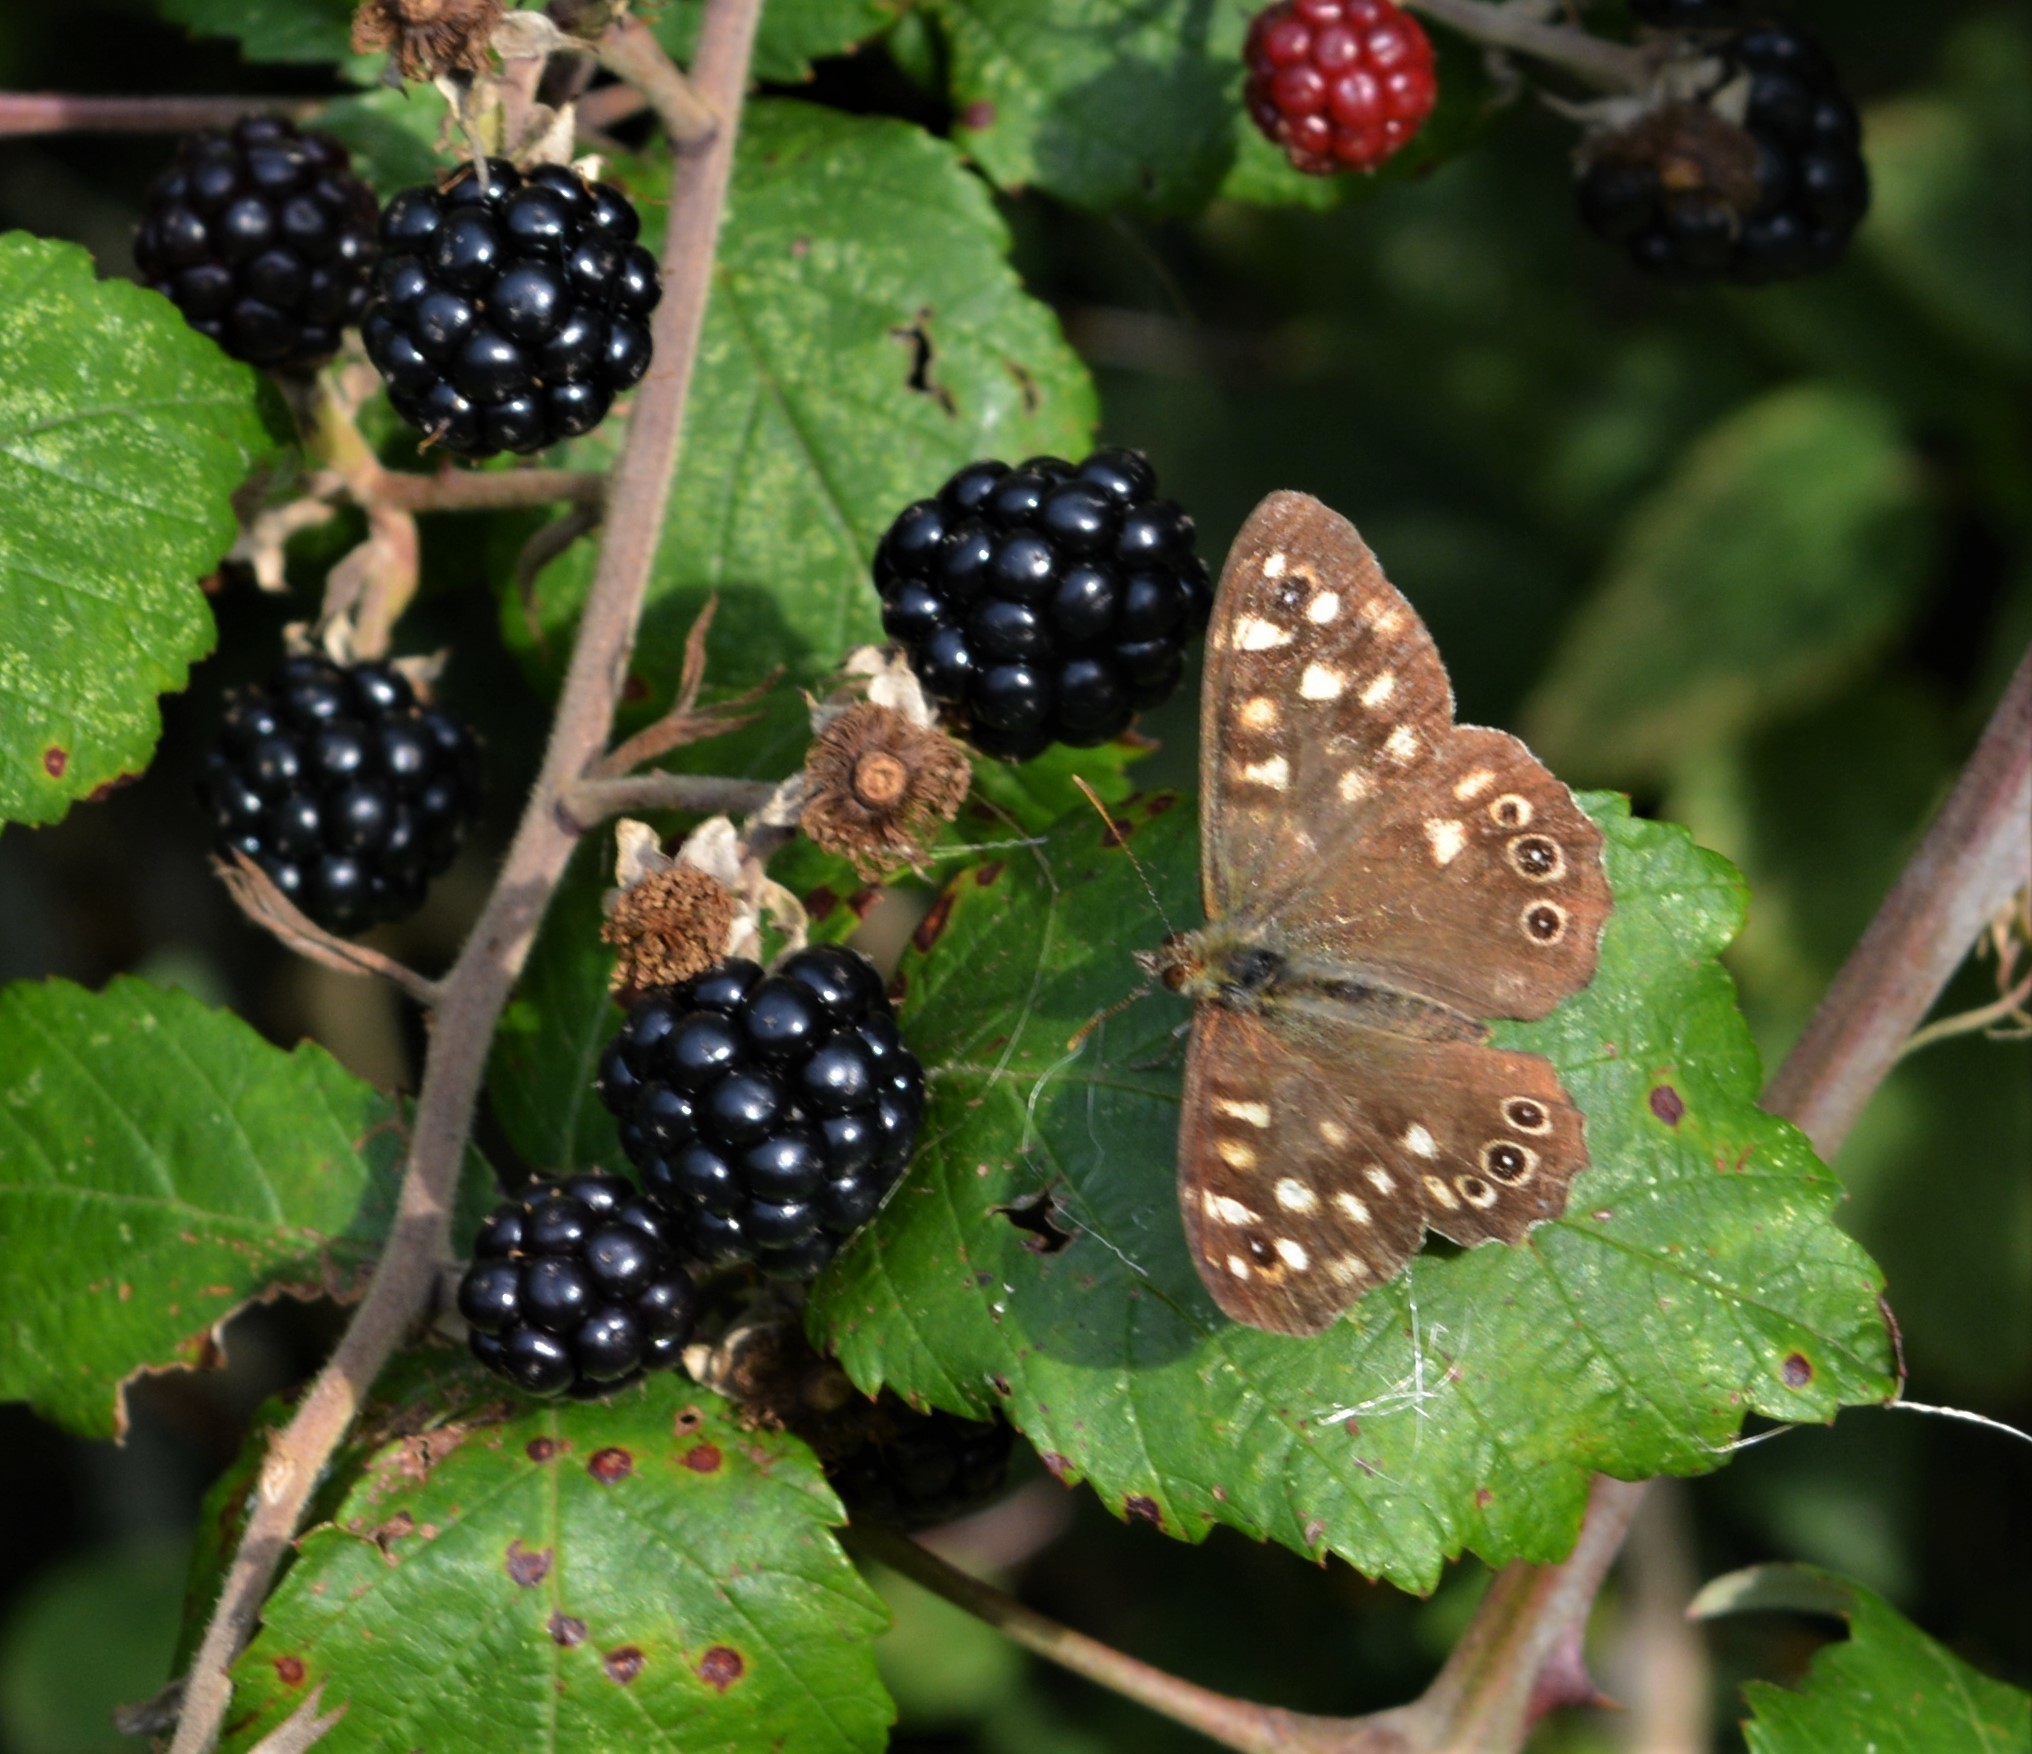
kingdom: Animalia
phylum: Arthropoda
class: Insecta
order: Lepidoptera
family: Nymphalidae
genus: Pararge
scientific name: Pararge aegeria
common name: Speckled wood
